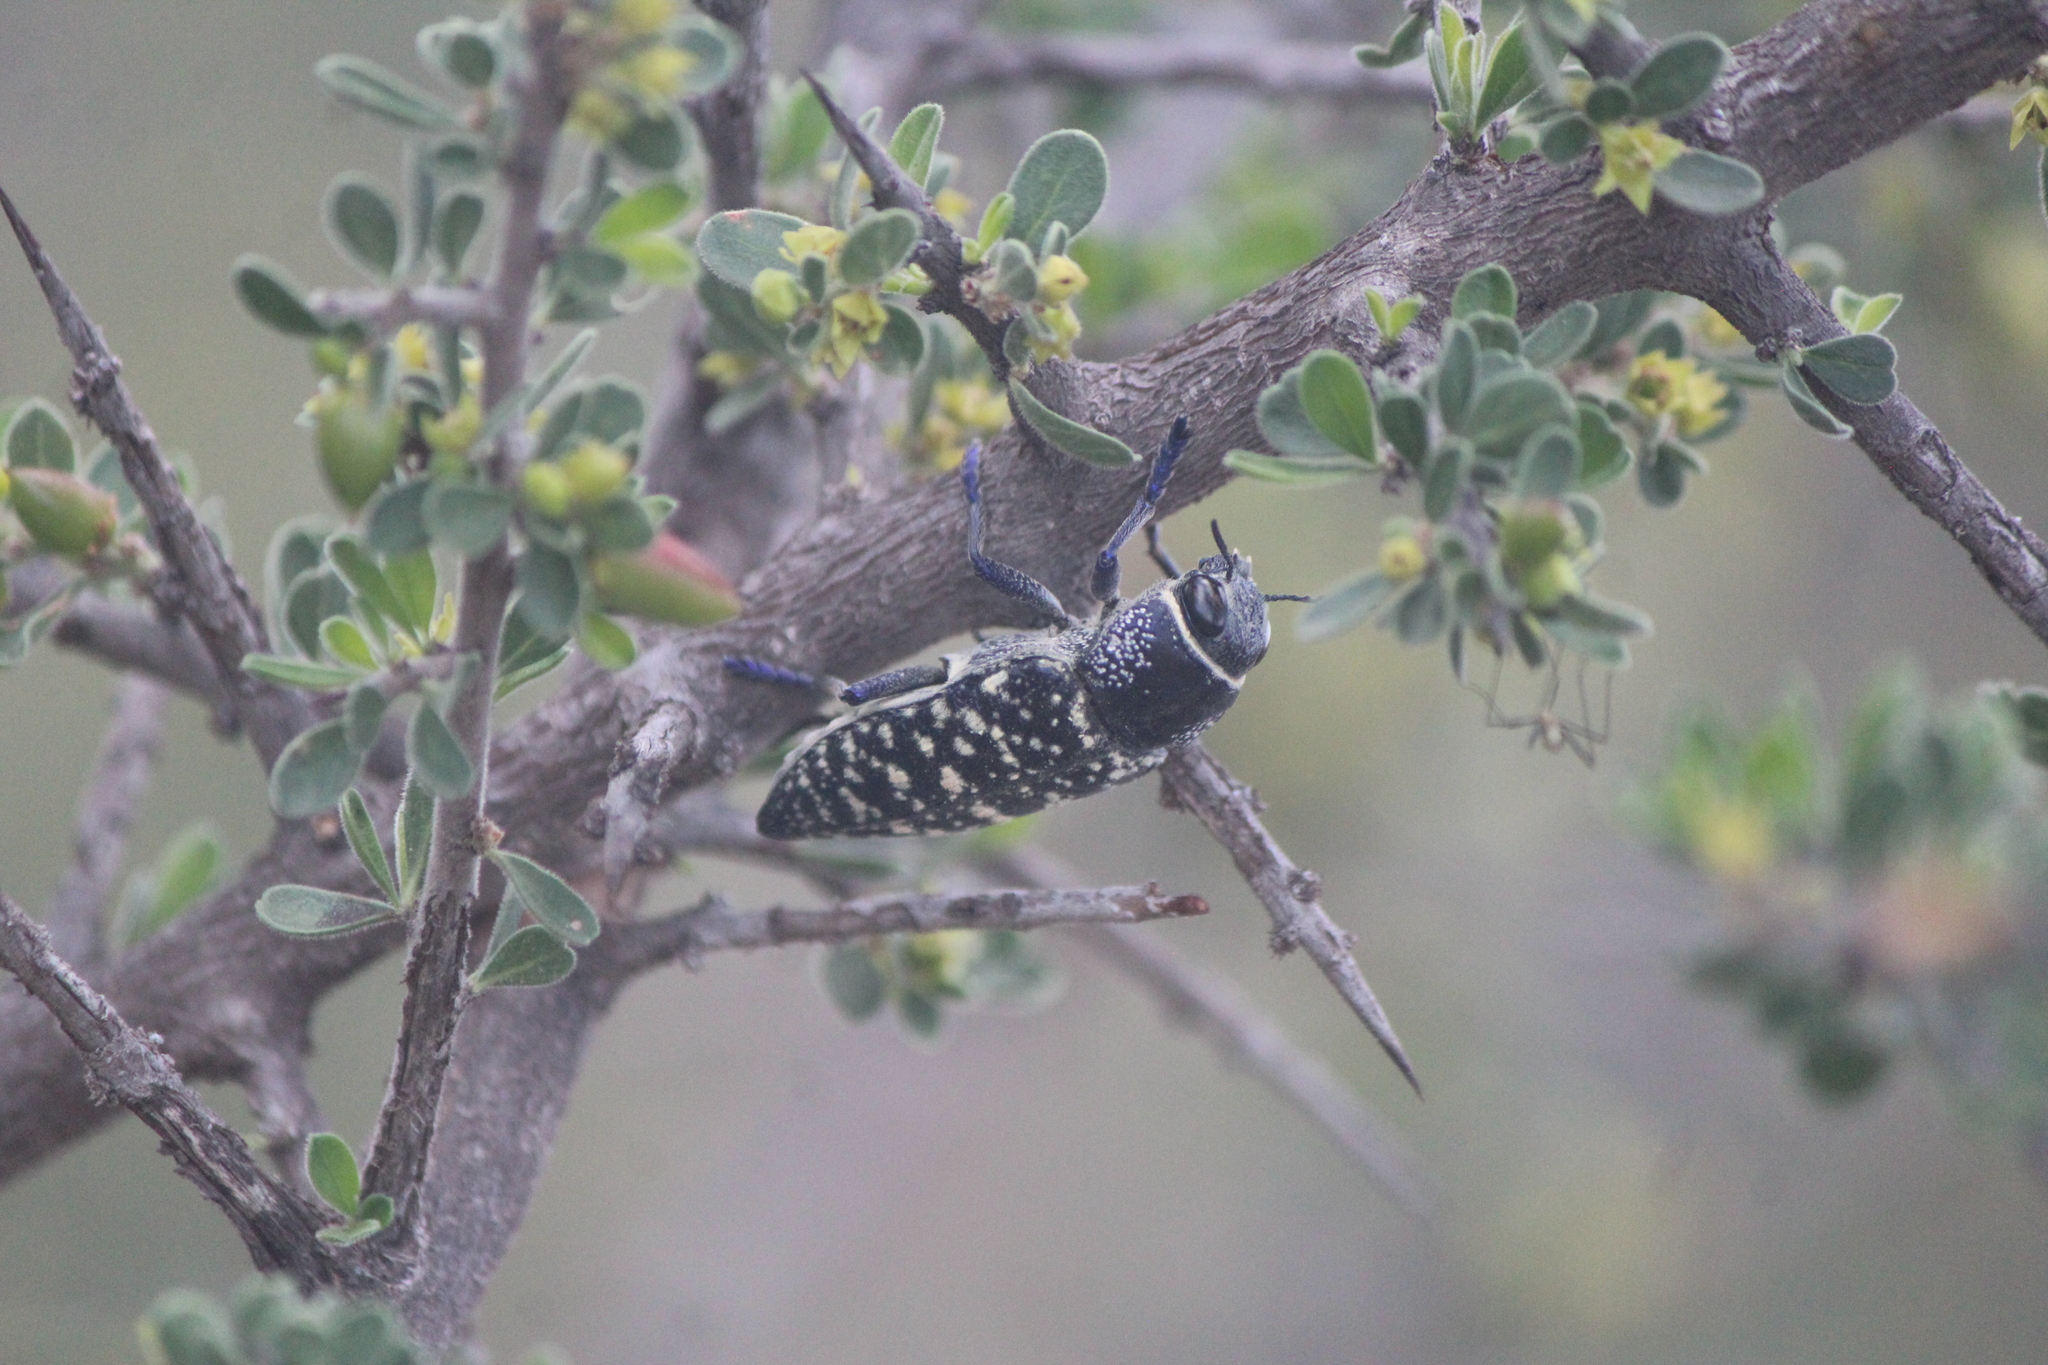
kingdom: Animalia
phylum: Arthropoda
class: Insecta
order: Coleoptera
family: Buprestidae
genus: Lampetis
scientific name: Lampetis dilaticollis
